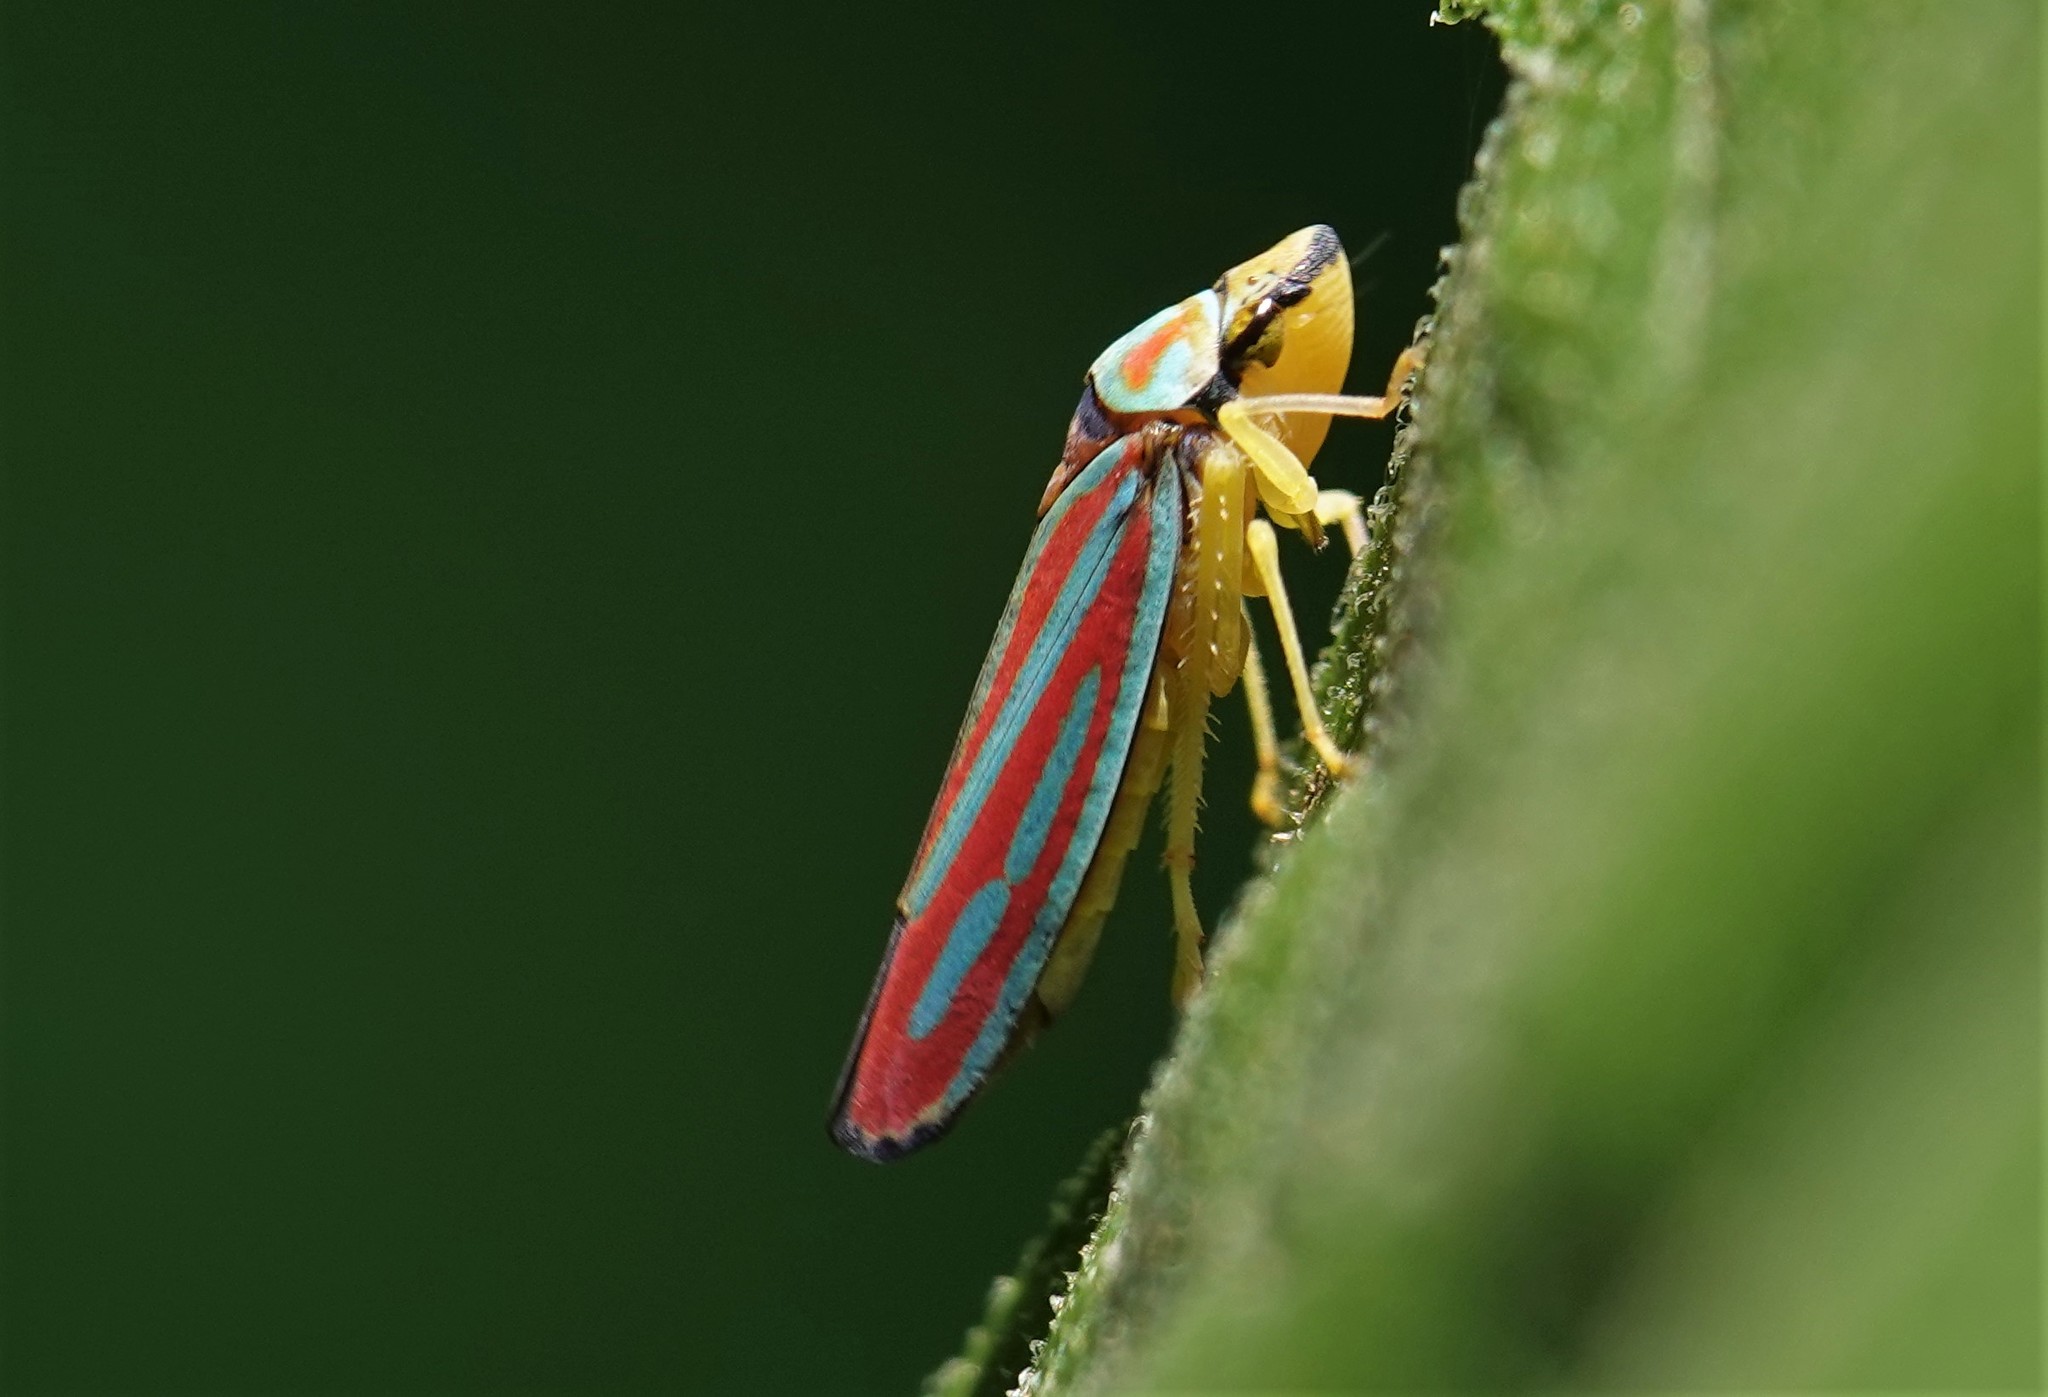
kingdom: Animalia
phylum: Arthropoda
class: Insecta
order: Hemiptera
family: Cicadellidae
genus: Graphocephala
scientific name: Graphocephala coccinea
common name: Candy-striped leafhopper
